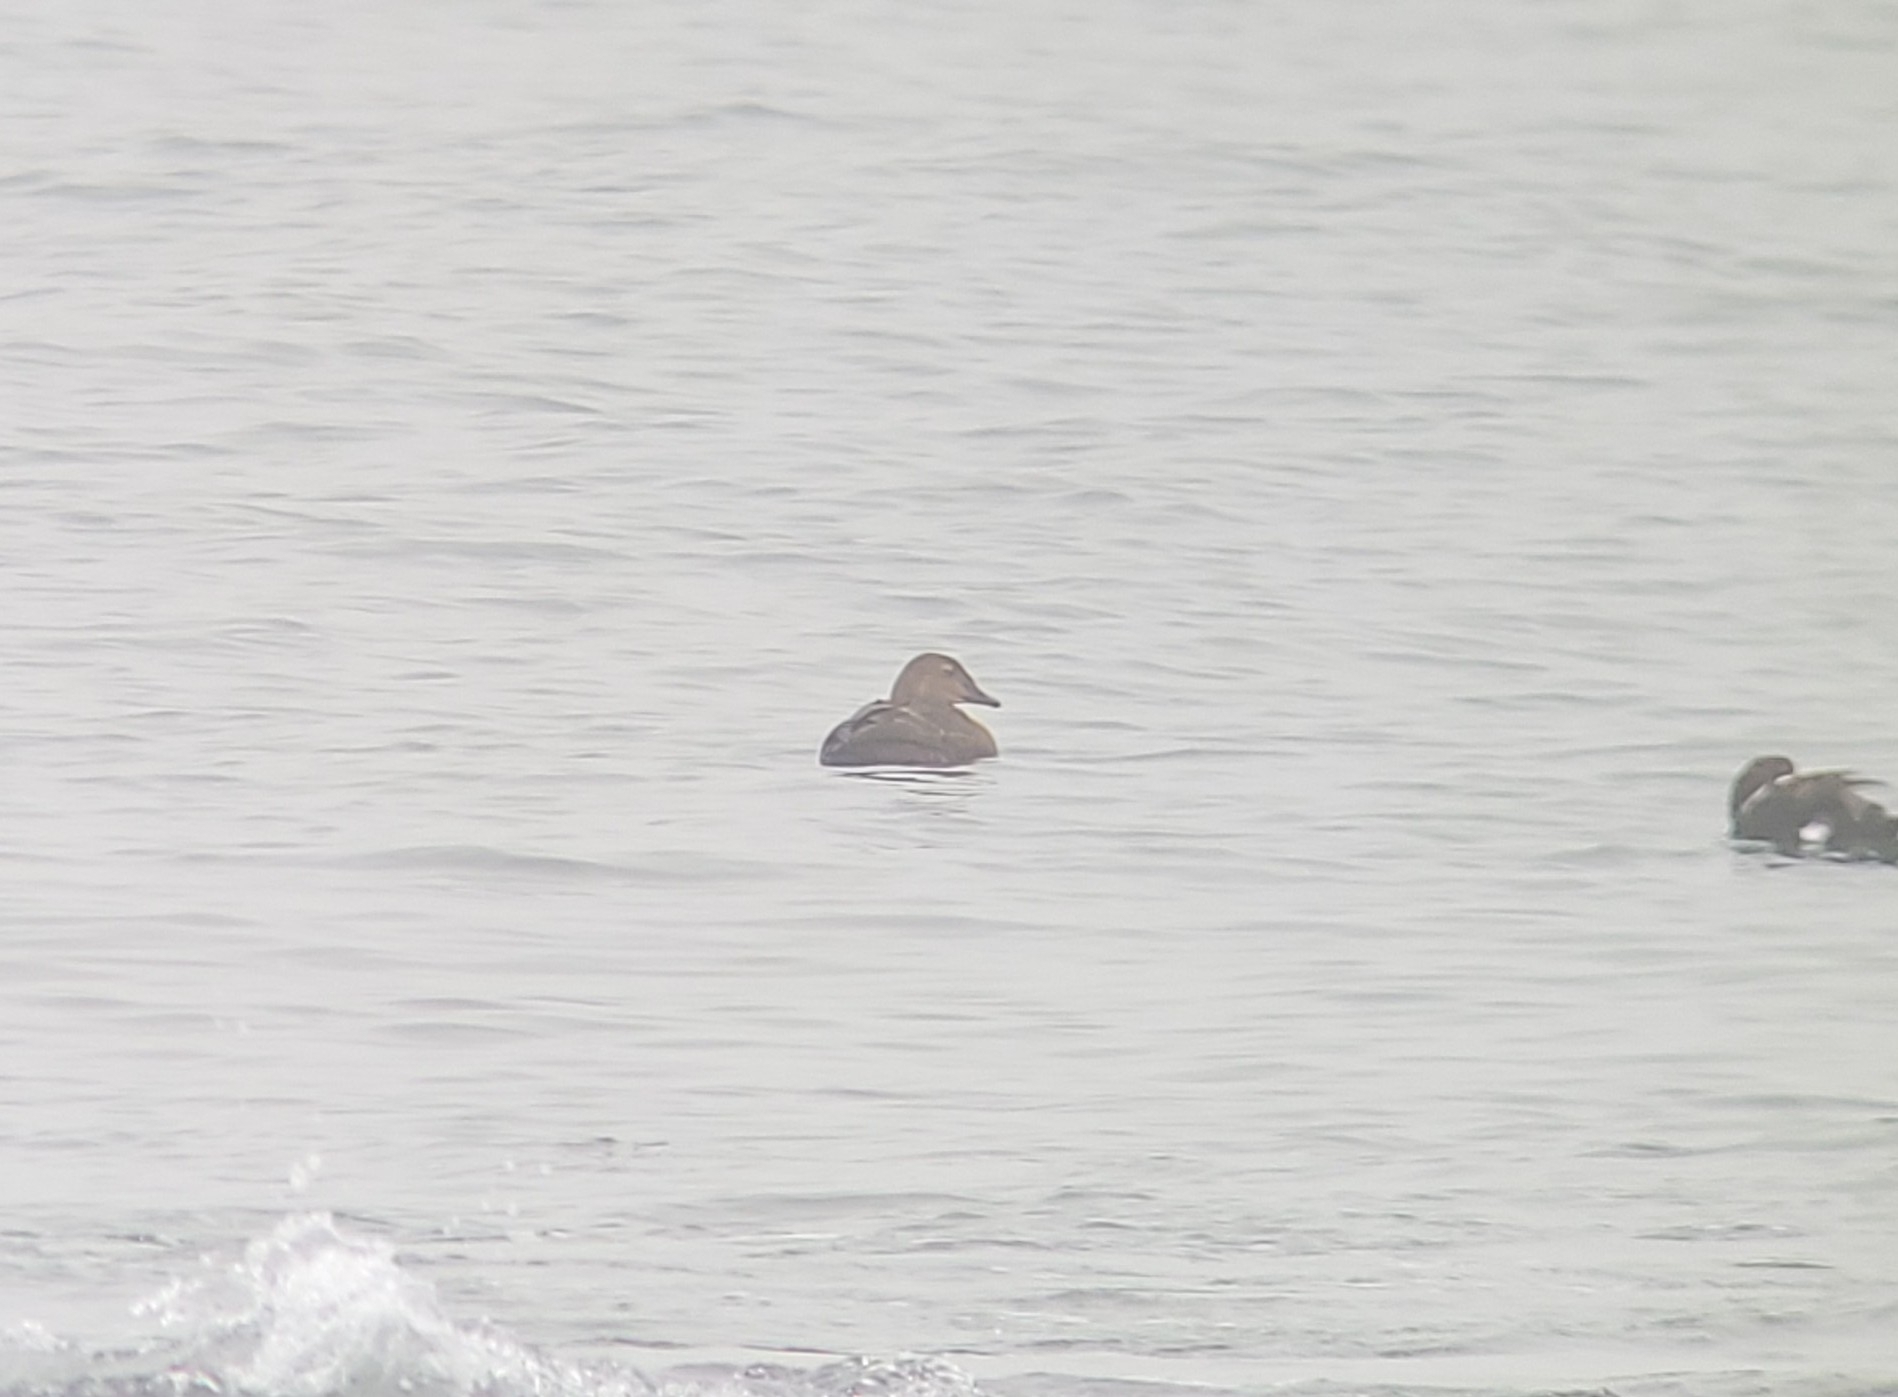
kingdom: Animalia
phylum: Chordata
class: Aves
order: Anseriformes
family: Anatidae
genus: Somateria
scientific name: Somateria spectabilis
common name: King eider
